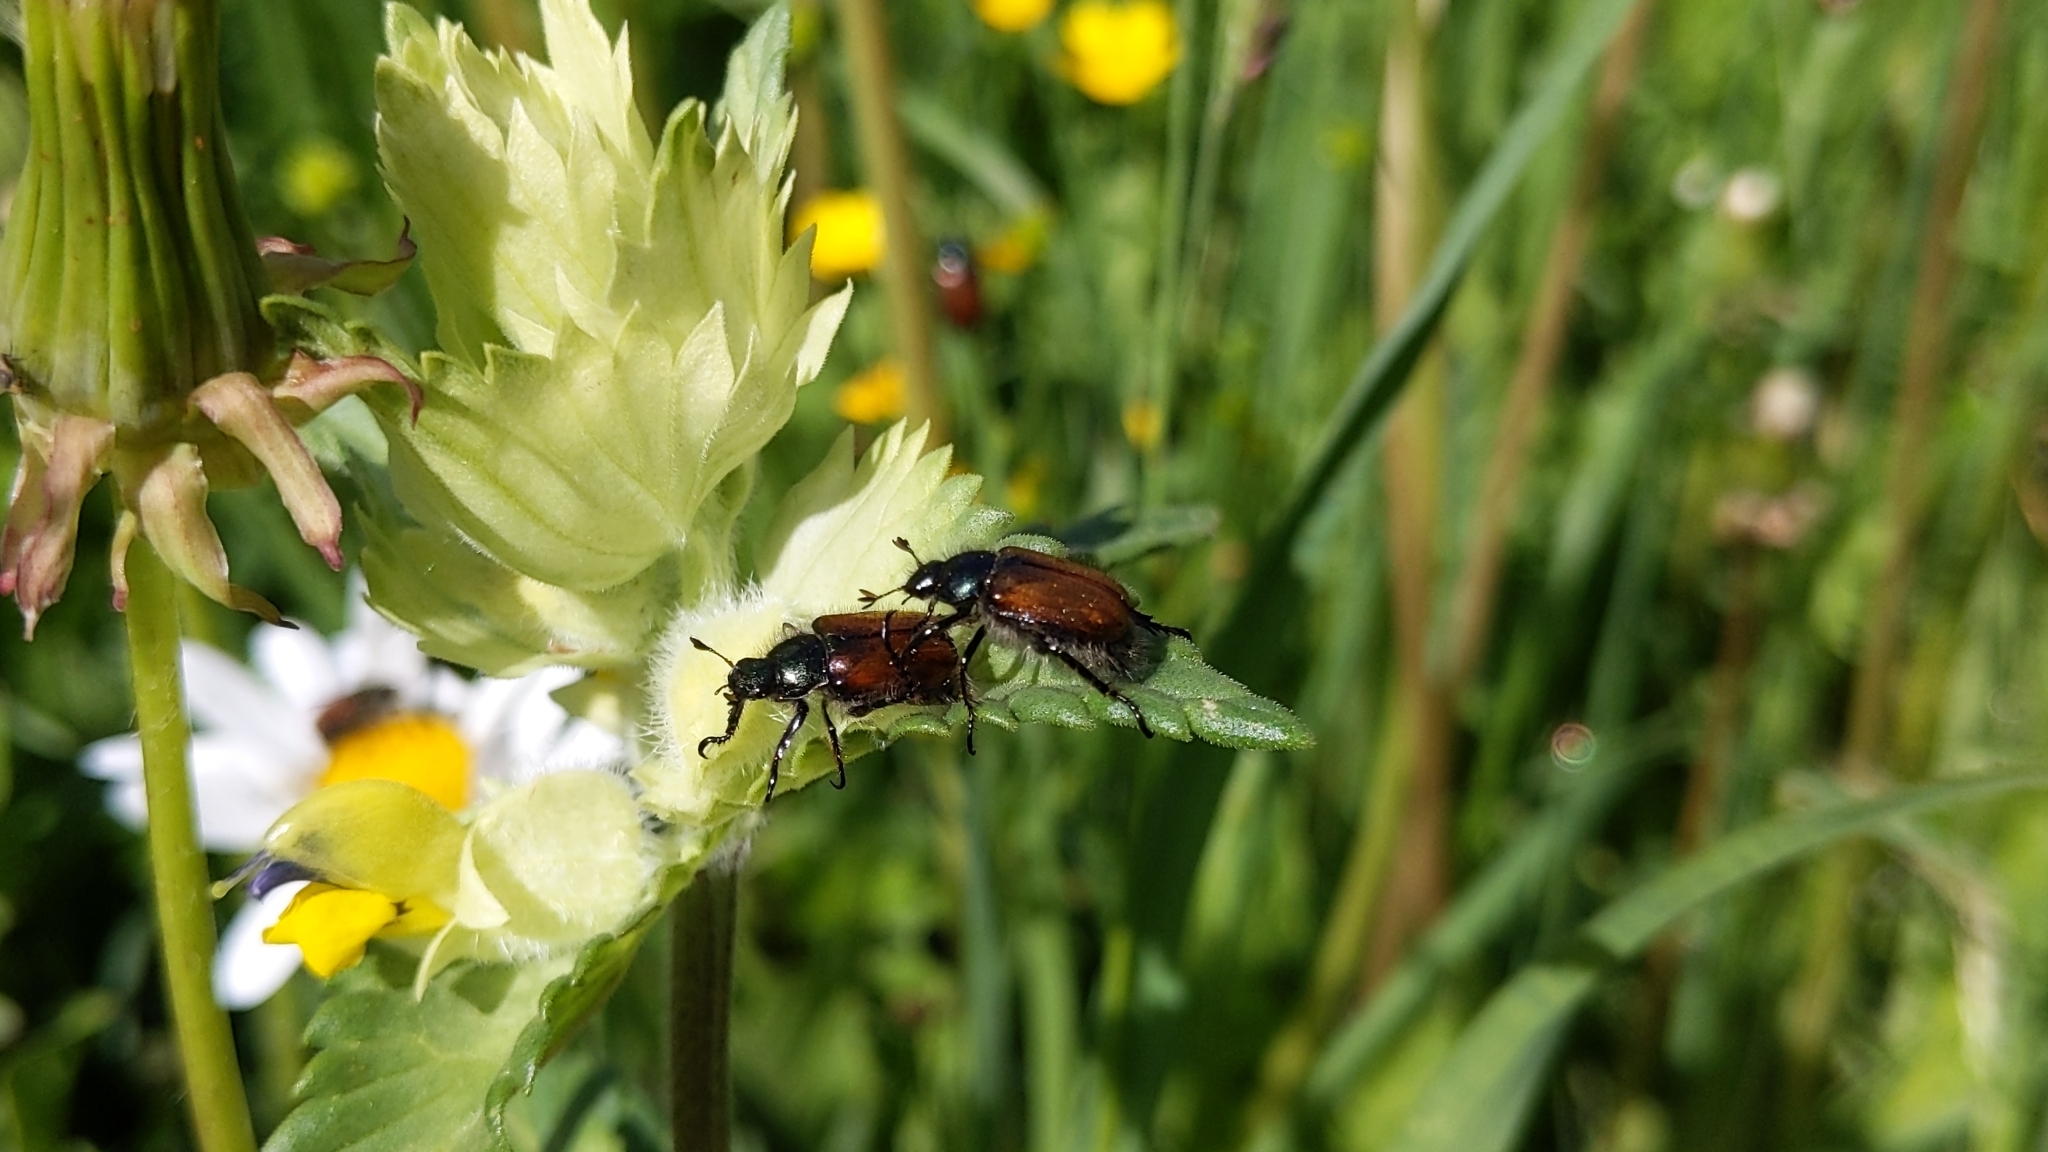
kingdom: Animalia
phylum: Arthropoda
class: Insecta
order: Coleoptera
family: Scarabaeidae
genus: Phyllopertha
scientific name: Phyllopertha horticola
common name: Garden chafer
